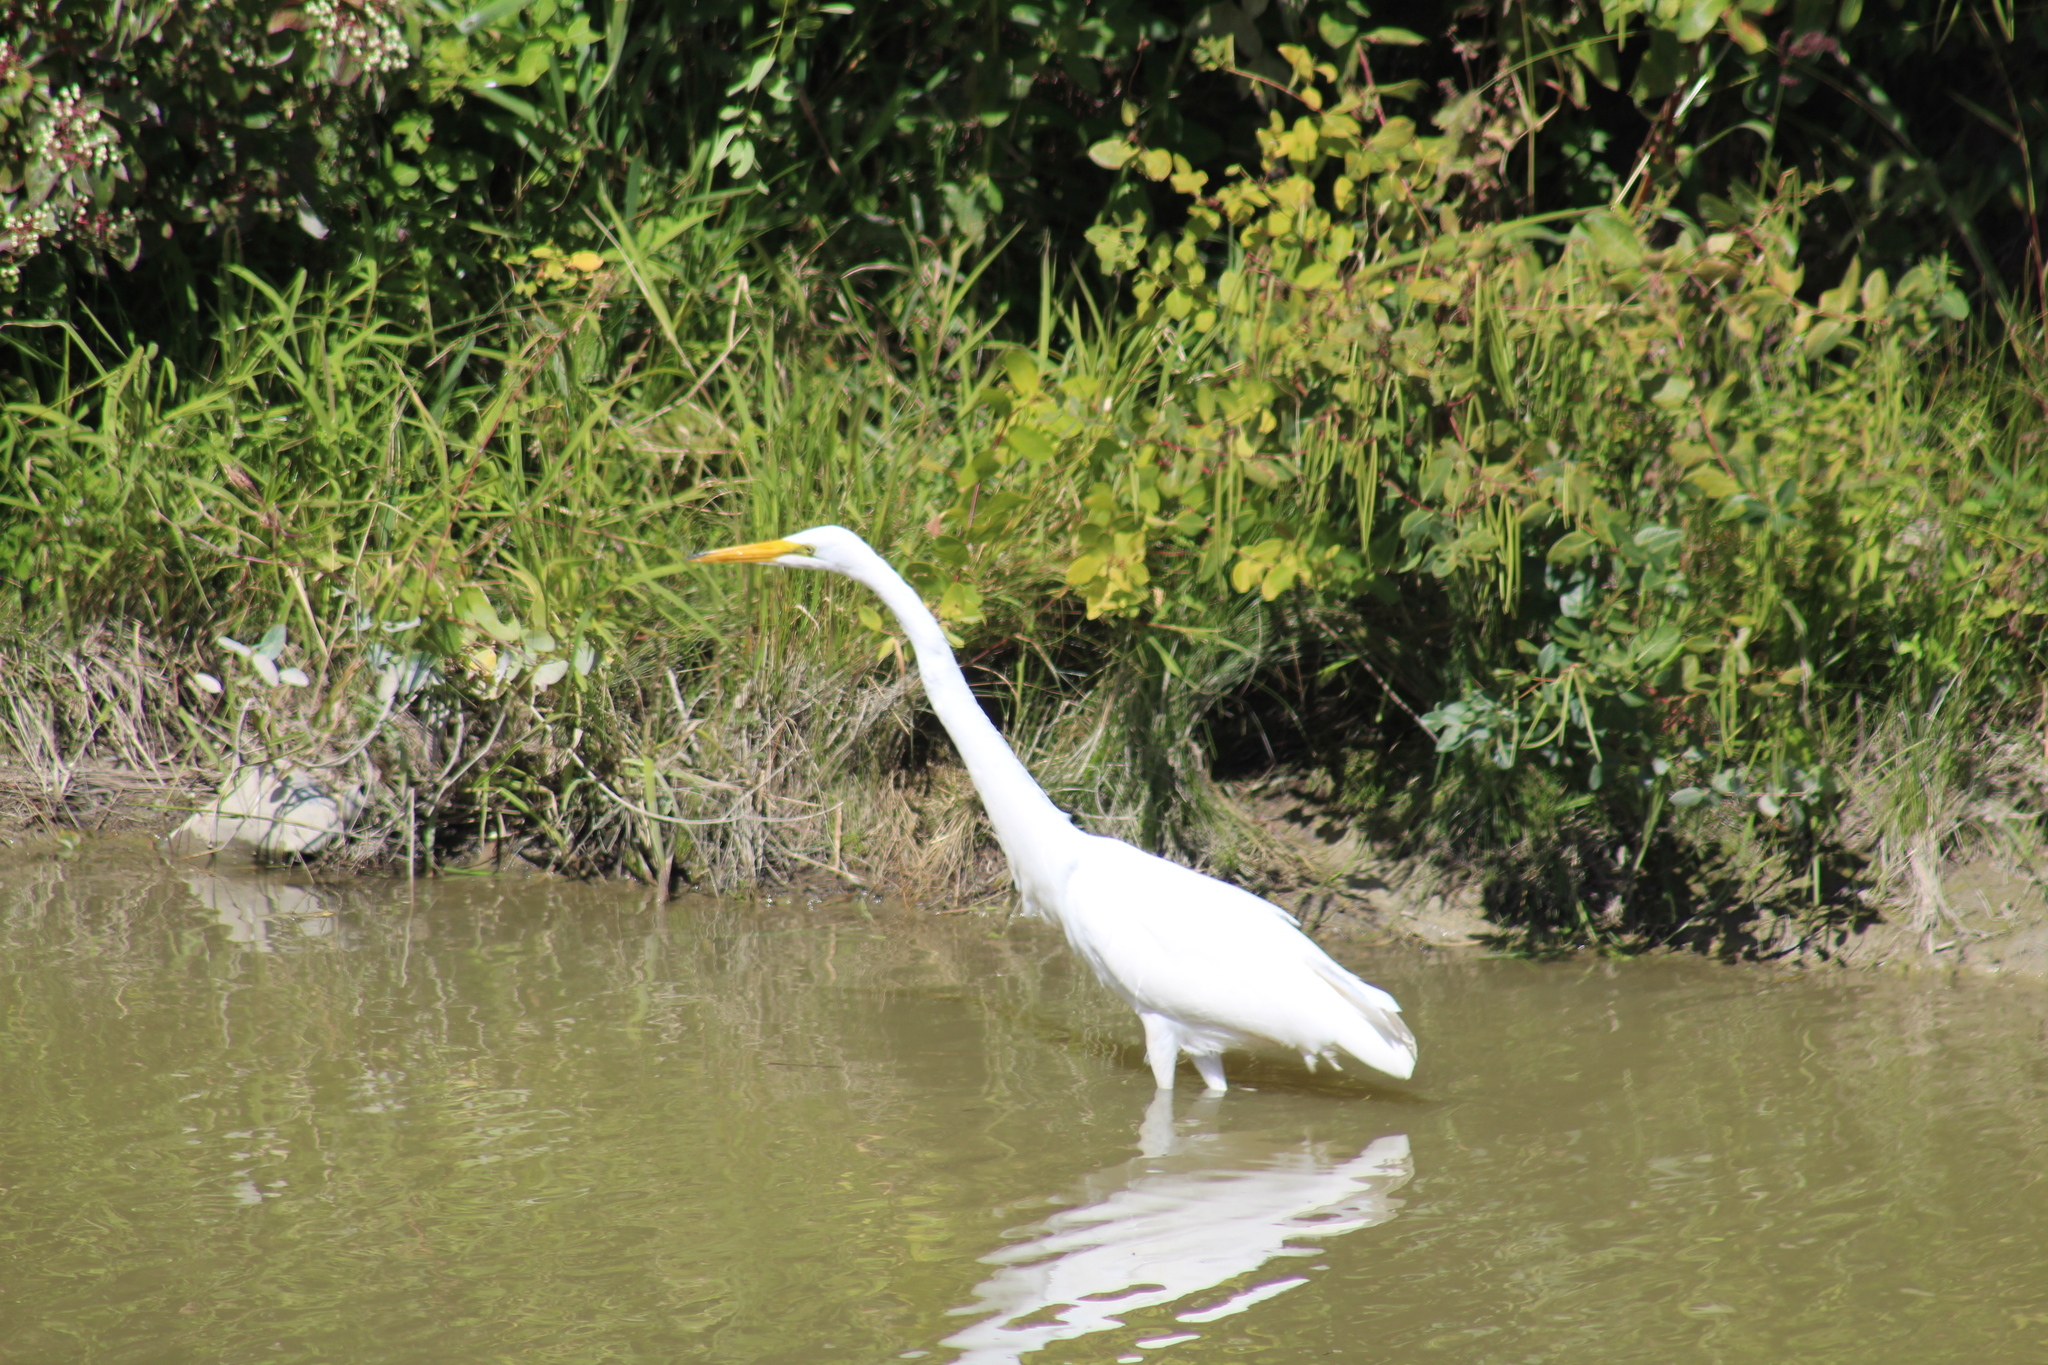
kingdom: Animalia
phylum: Chordata
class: Aves
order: Pelecaniformes
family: Ardeidae
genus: Ardea
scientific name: Ardea alba
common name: Great egret
